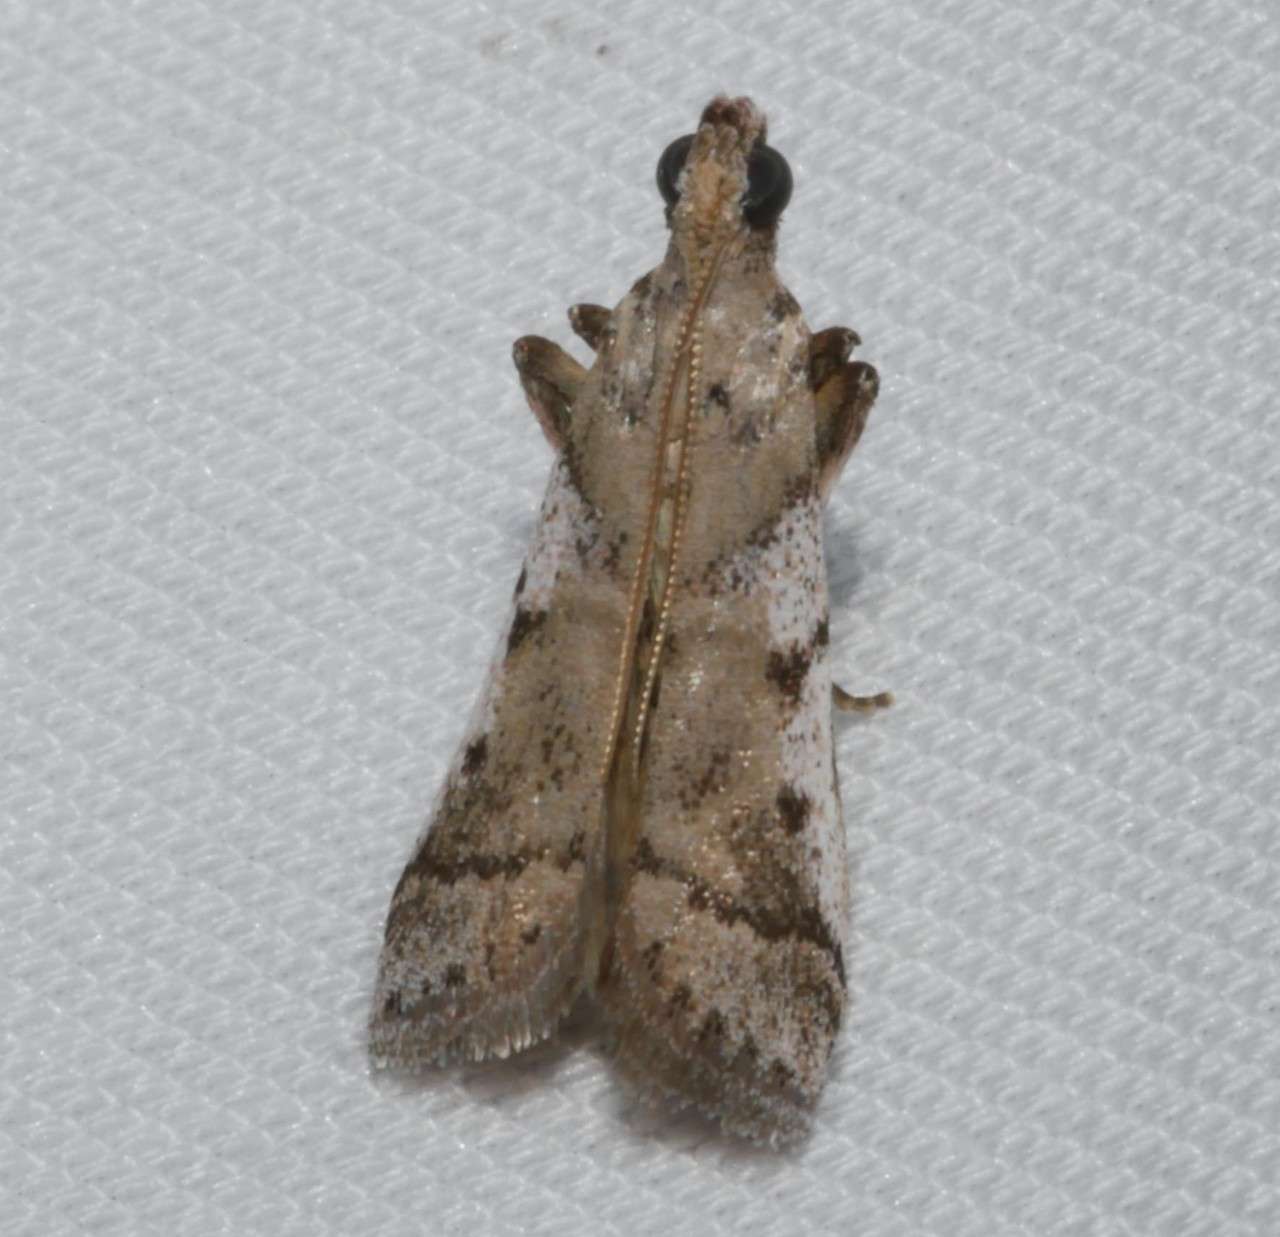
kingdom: Animalia
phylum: Arthropoda
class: Insecta
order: Lepidoptera
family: Pyralidae
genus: Assara
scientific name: Assara holophragma
